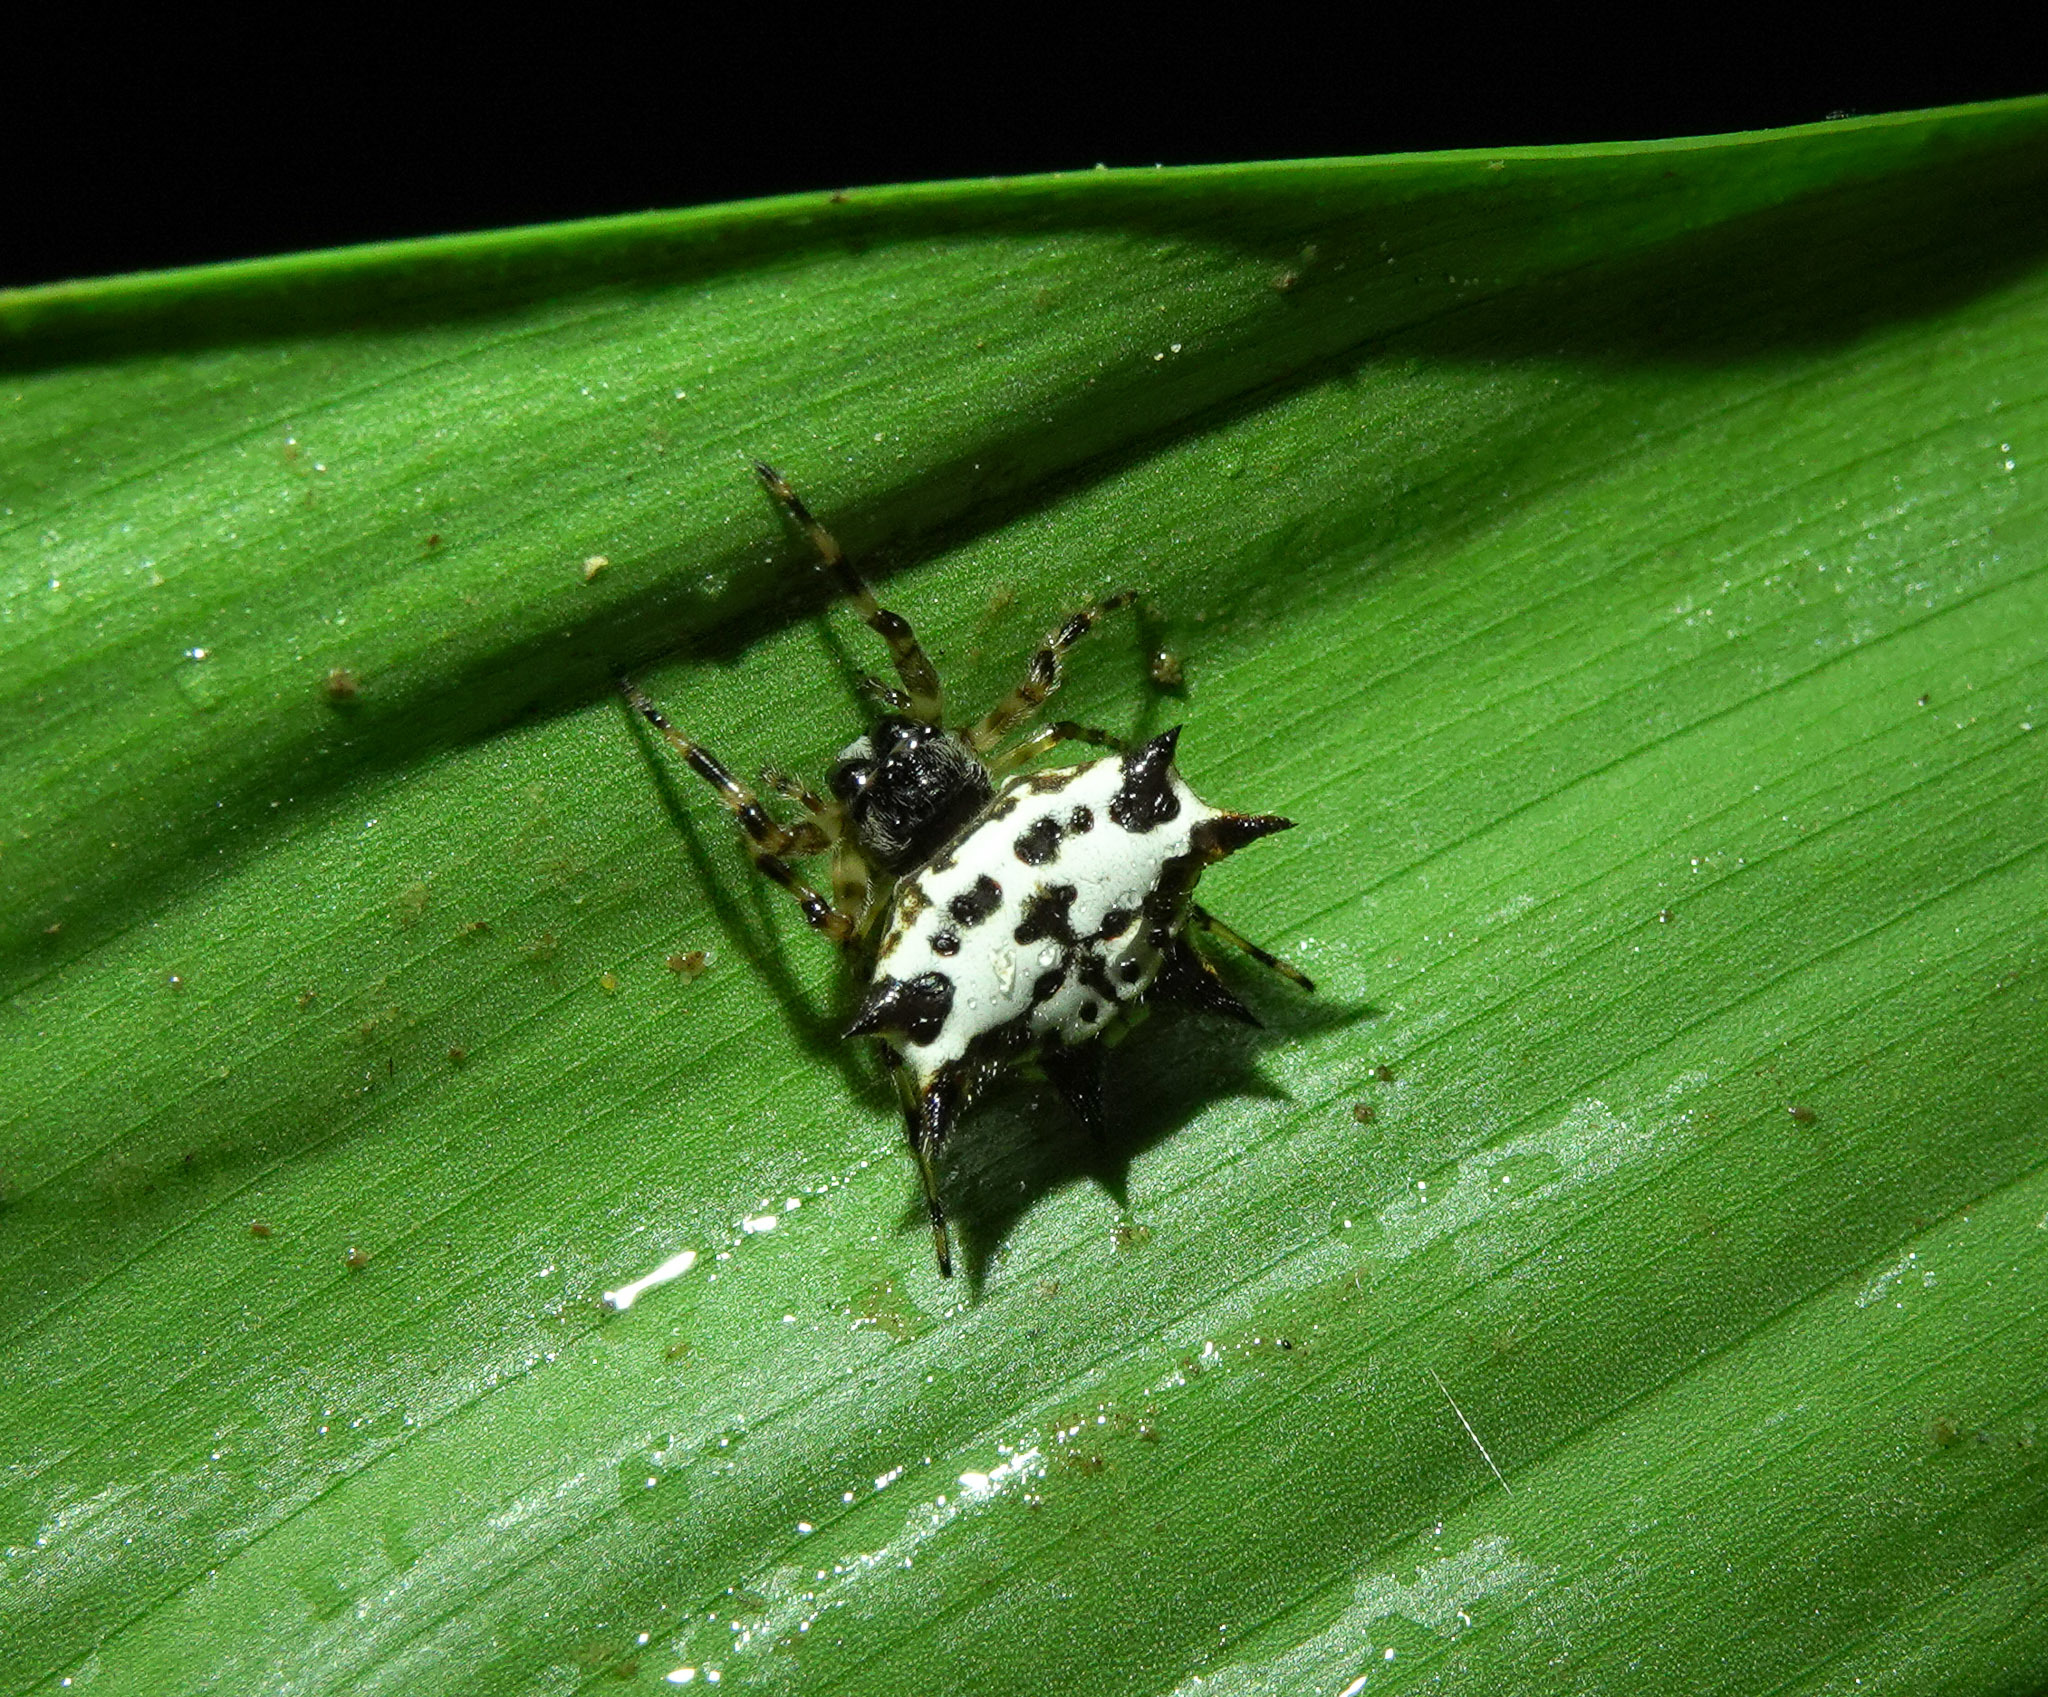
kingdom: Animalia
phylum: Arthropoda
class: Arachnida
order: Araneae
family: Araneidae
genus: Gasteracantha
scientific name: Gasteracantha kuhli
